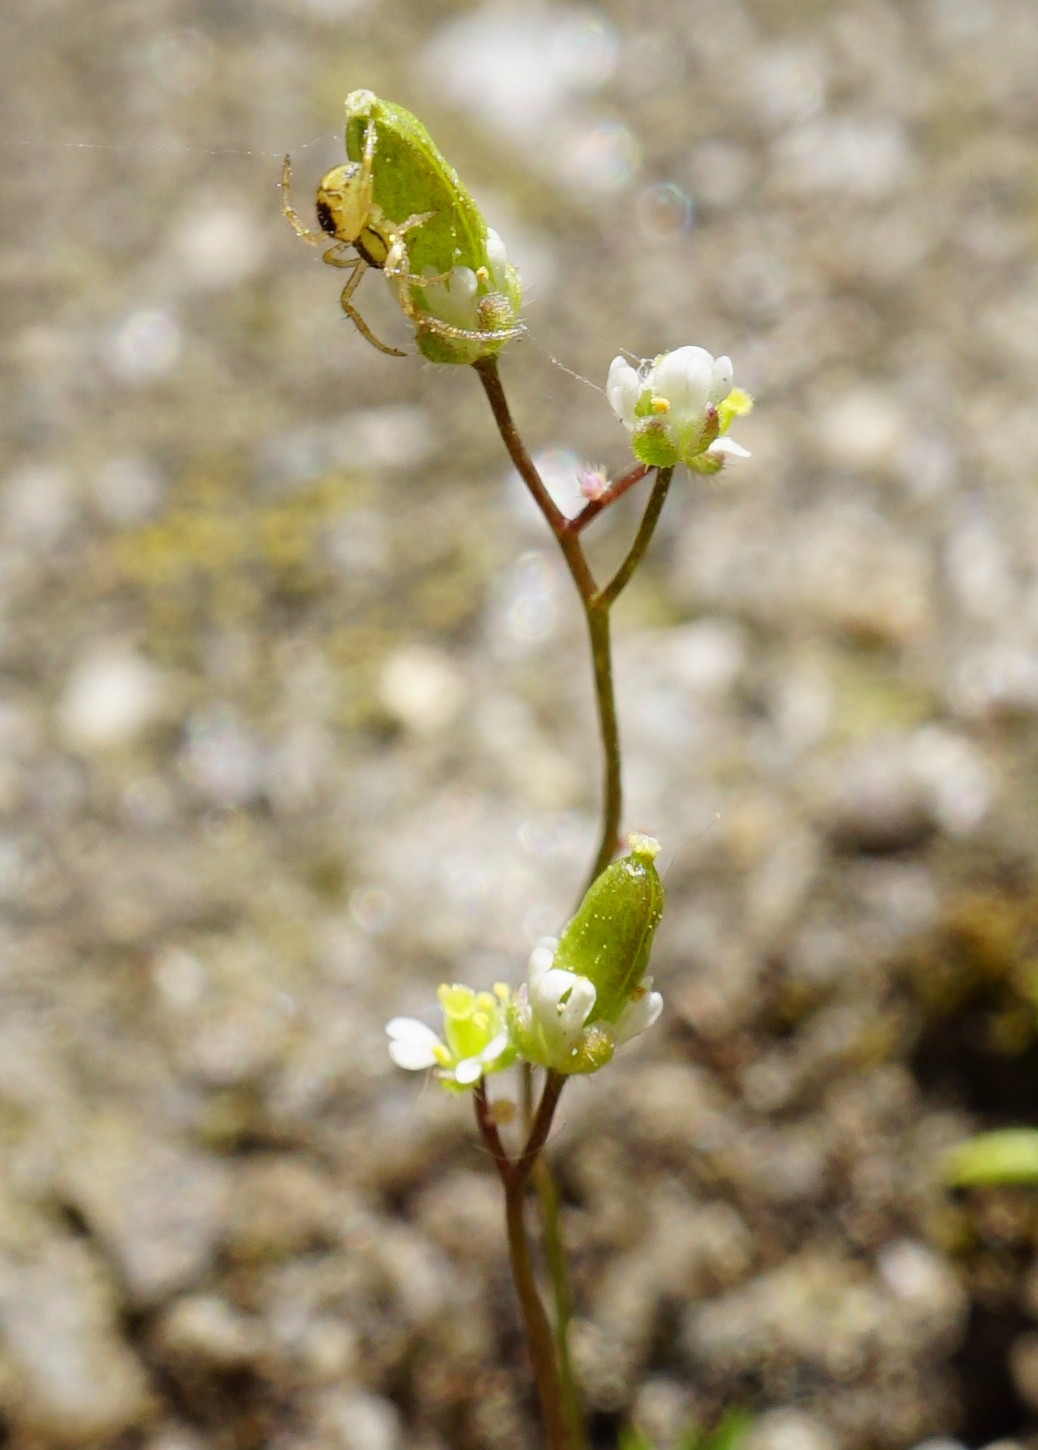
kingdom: Plantae
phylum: Tracheophyta
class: Magnoliopsida
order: Brassicales
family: Brassicaceae
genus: Draba
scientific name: Draba verna
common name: Spring draba
